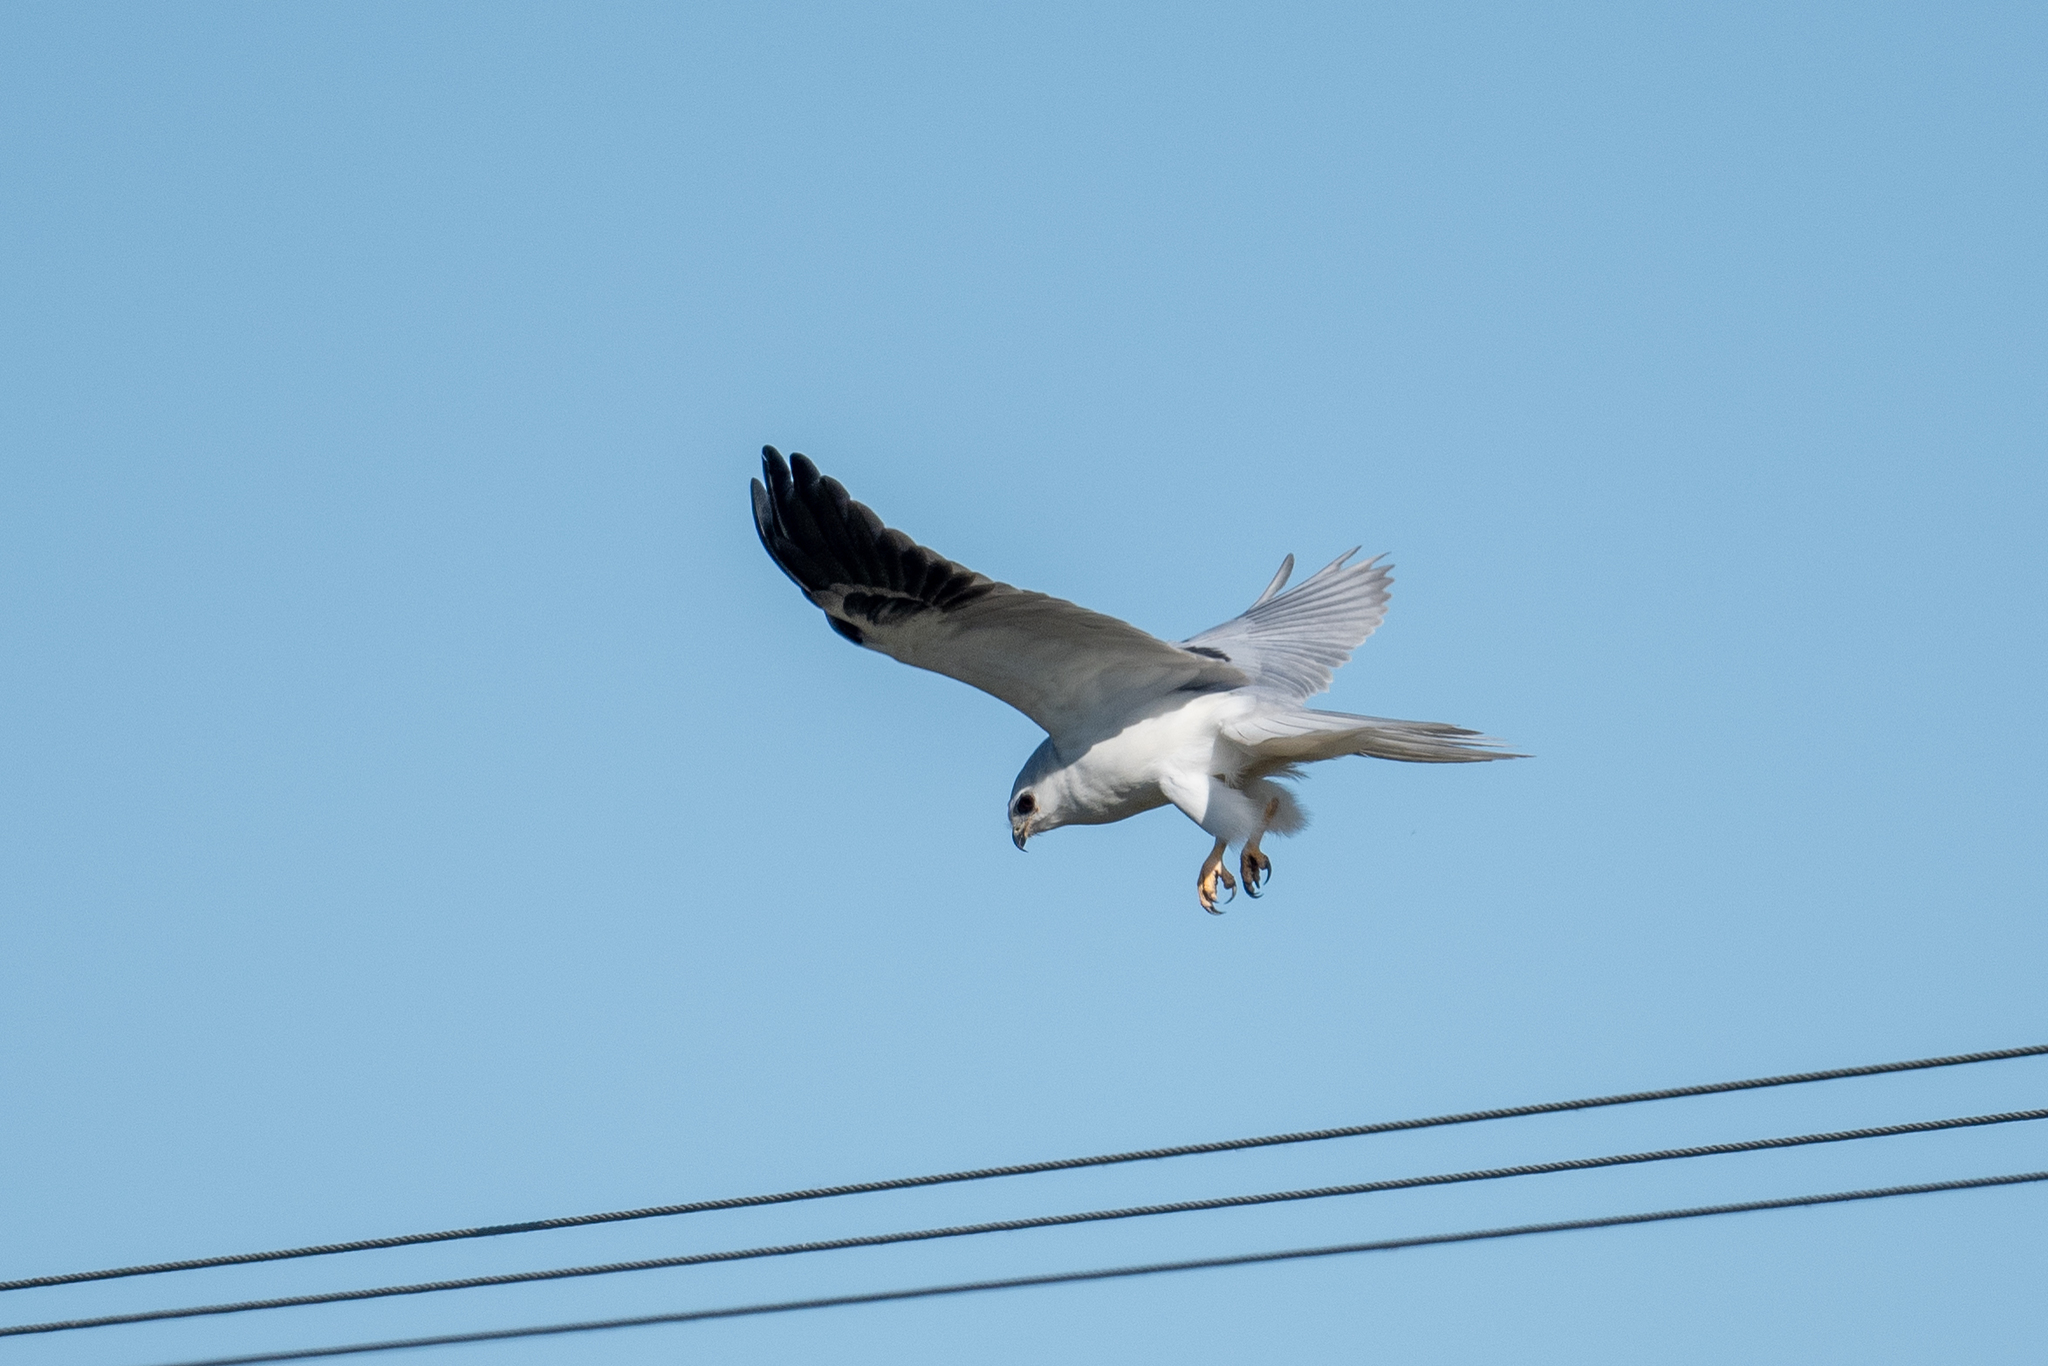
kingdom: Animalia
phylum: Chordata
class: Aves
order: Accipitriformes
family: Accipitridae
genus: Elanus
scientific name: Elanus leucurus
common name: White-tailed kite
